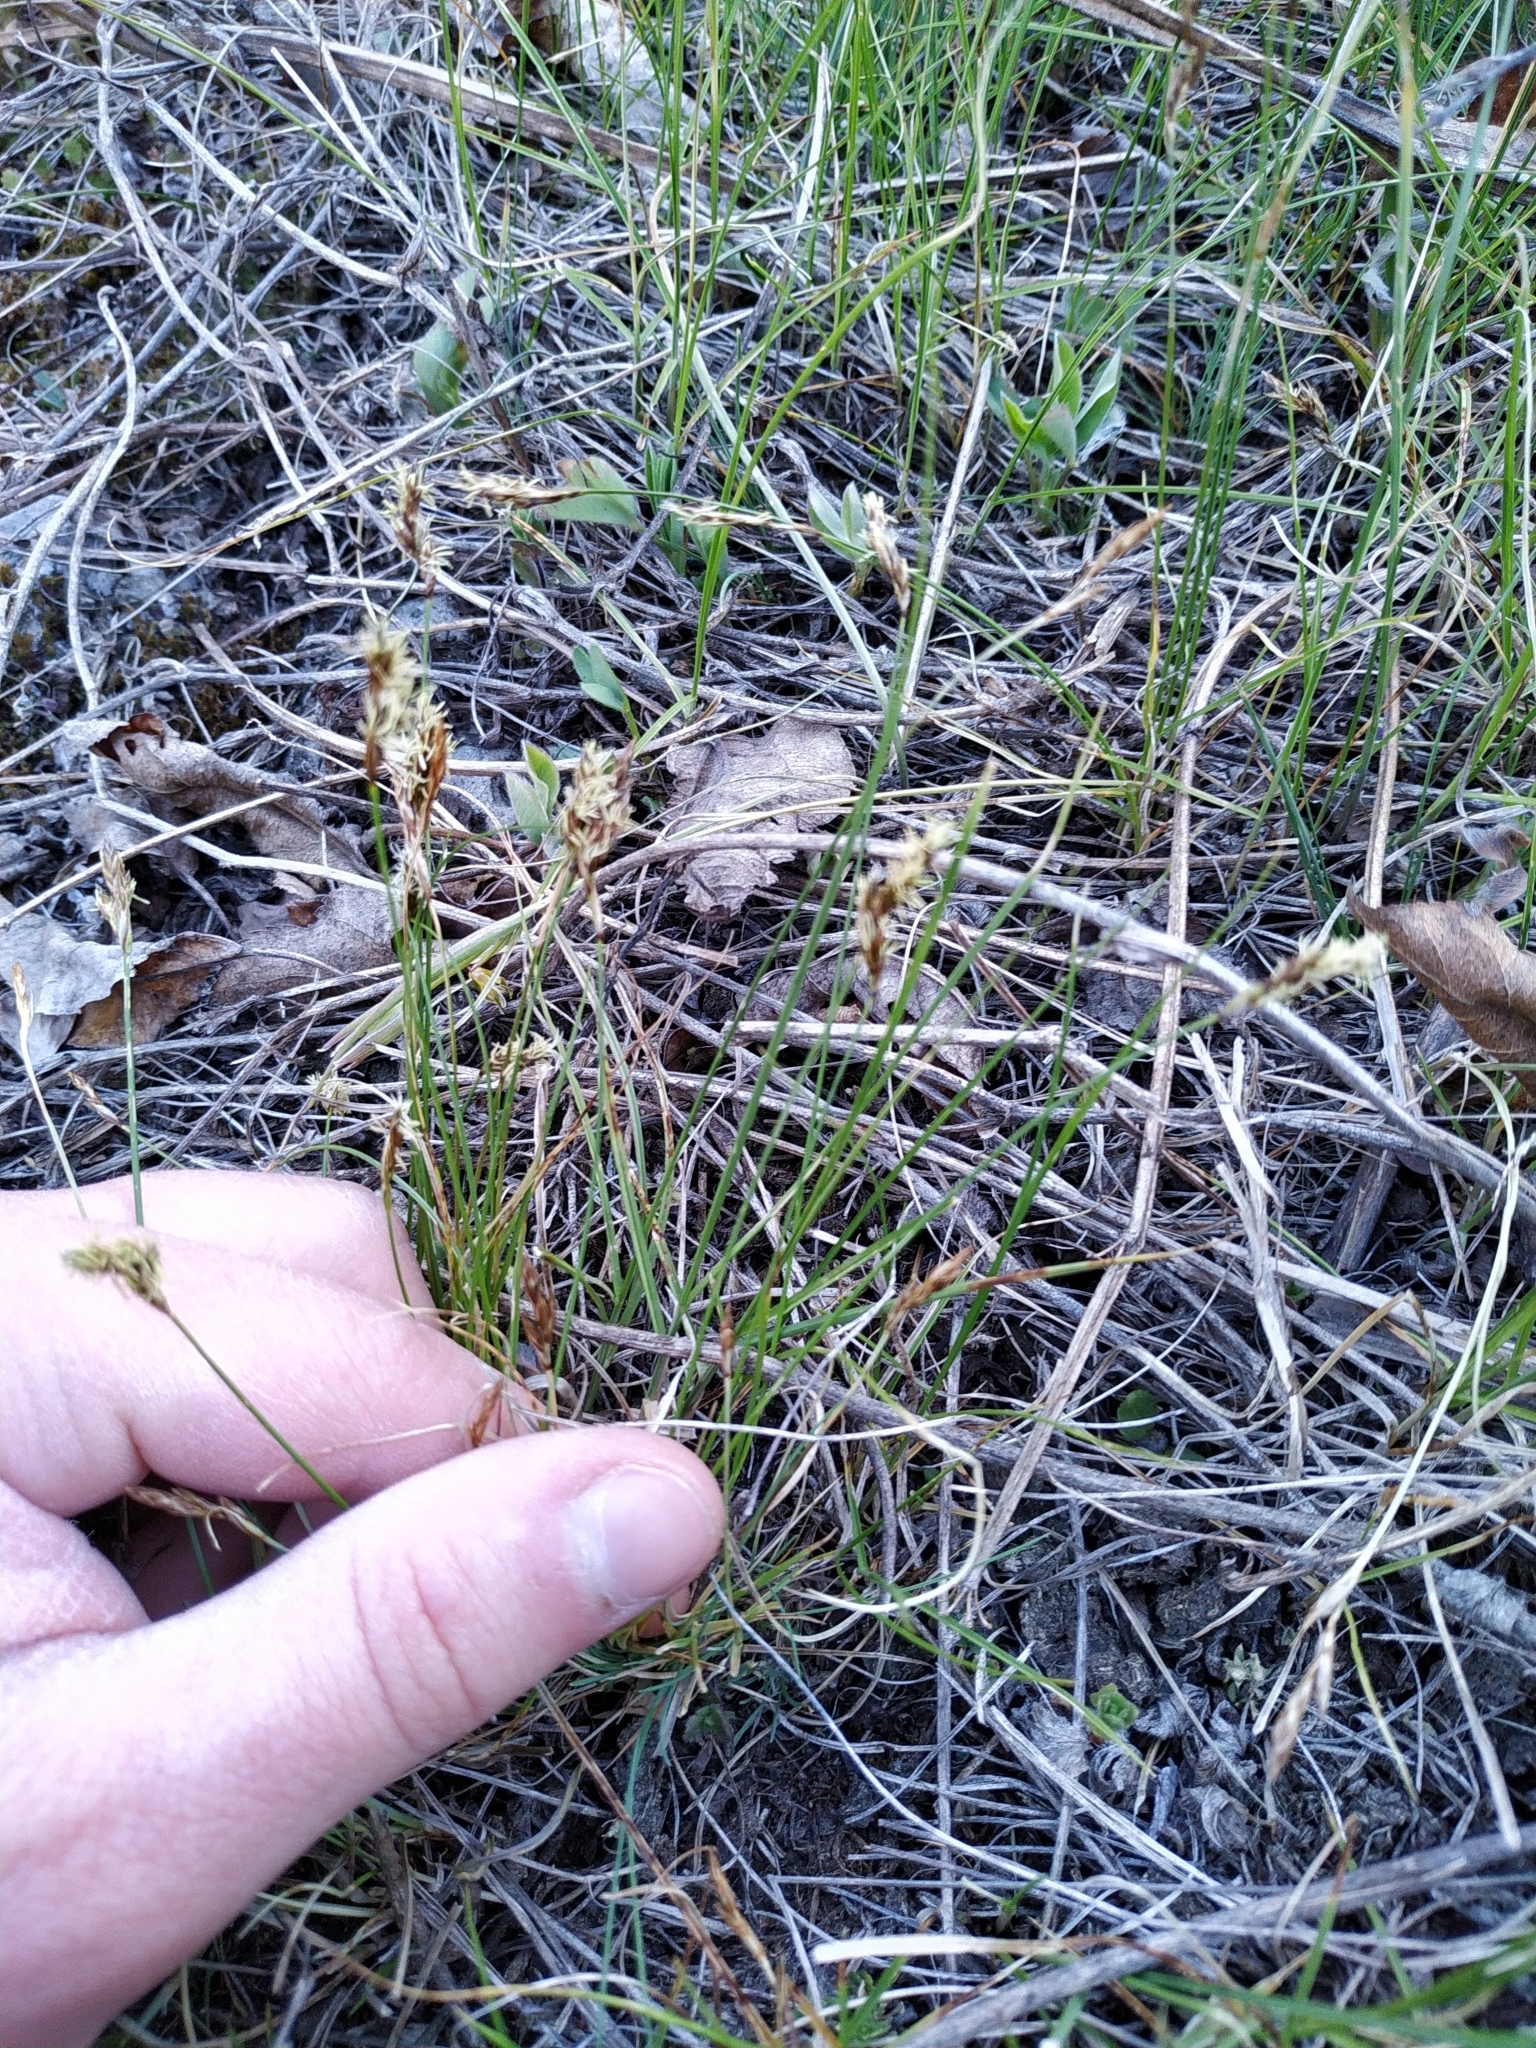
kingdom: Plantae
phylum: Tracheophyta
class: Liliopsida
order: Poales
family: Cyperaceae
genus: Carex
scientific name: Carex praecox
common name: Early sedge
